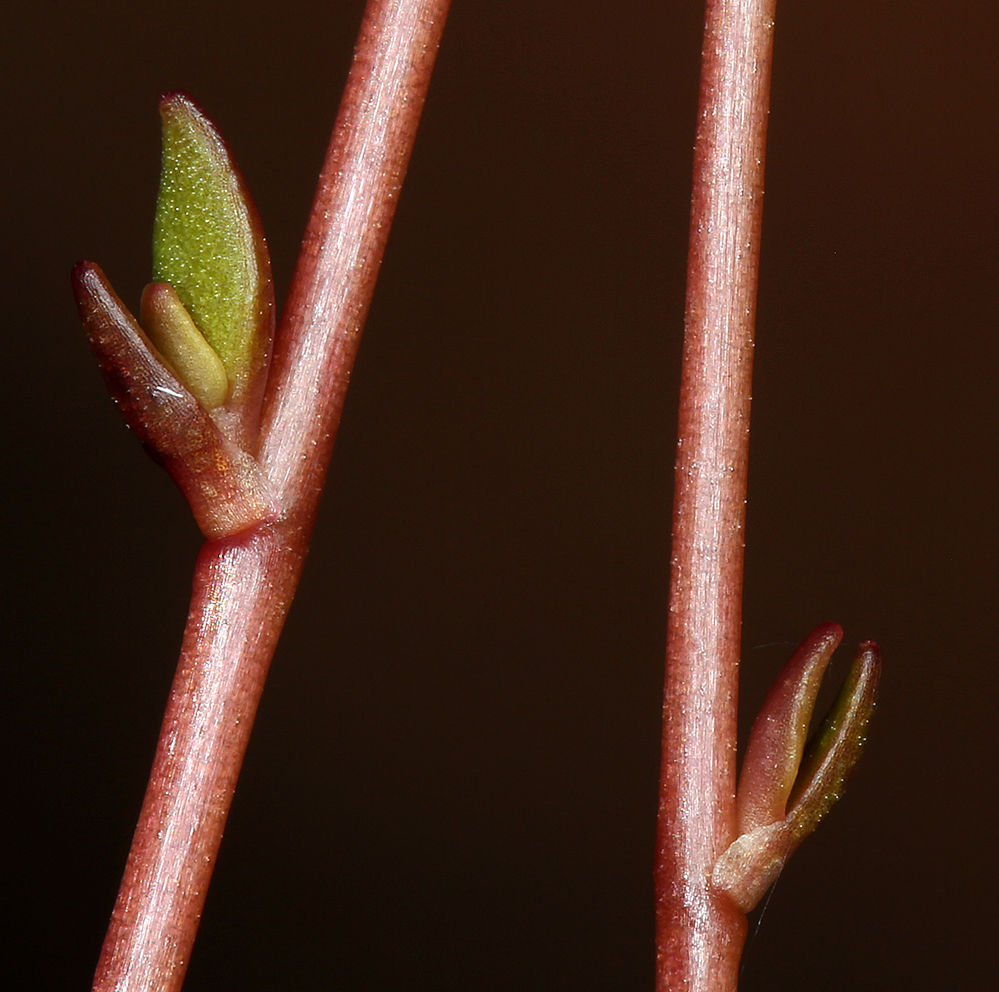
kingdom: Plantae
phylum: Tracheophyta
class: Magnoliopsida
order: Caryophyllales
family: Montiaceae
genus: Montia
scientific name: Montia parvifolia
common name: Small-leaved blinks
